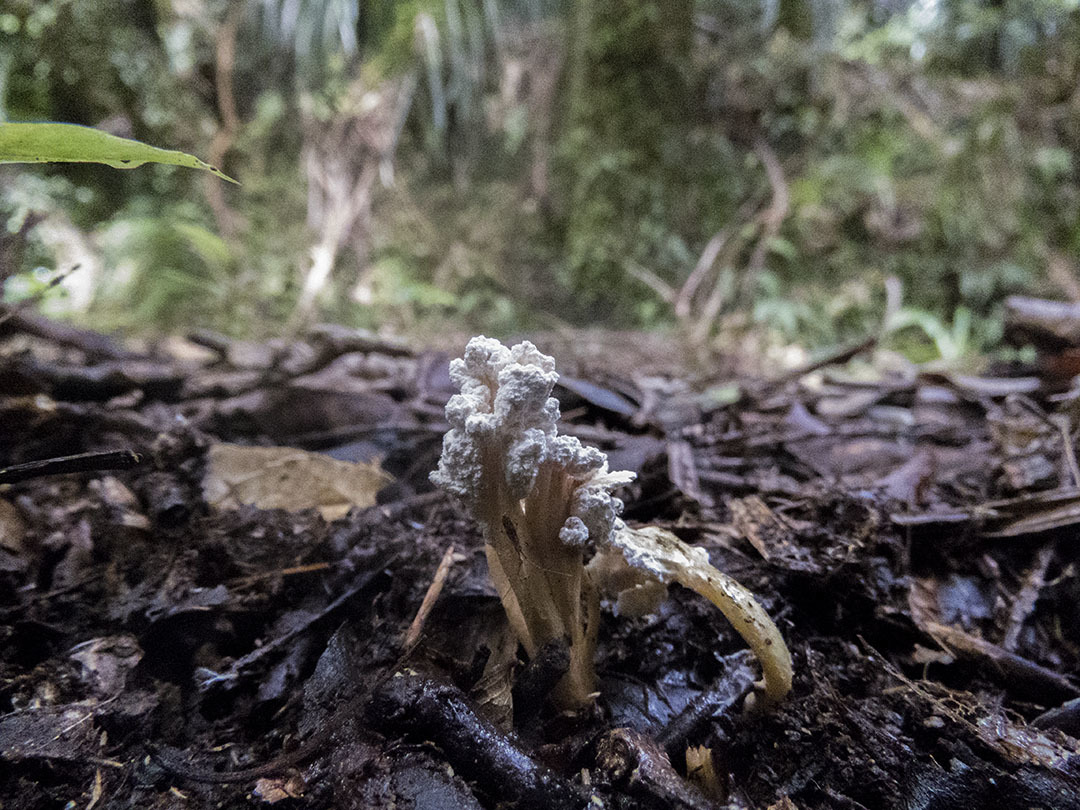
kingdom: Fungi
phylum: Ascomycota
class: Sordariomycetes
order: Hypocreales
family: Cordycipitaceae
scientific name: Cordycipitaceae
